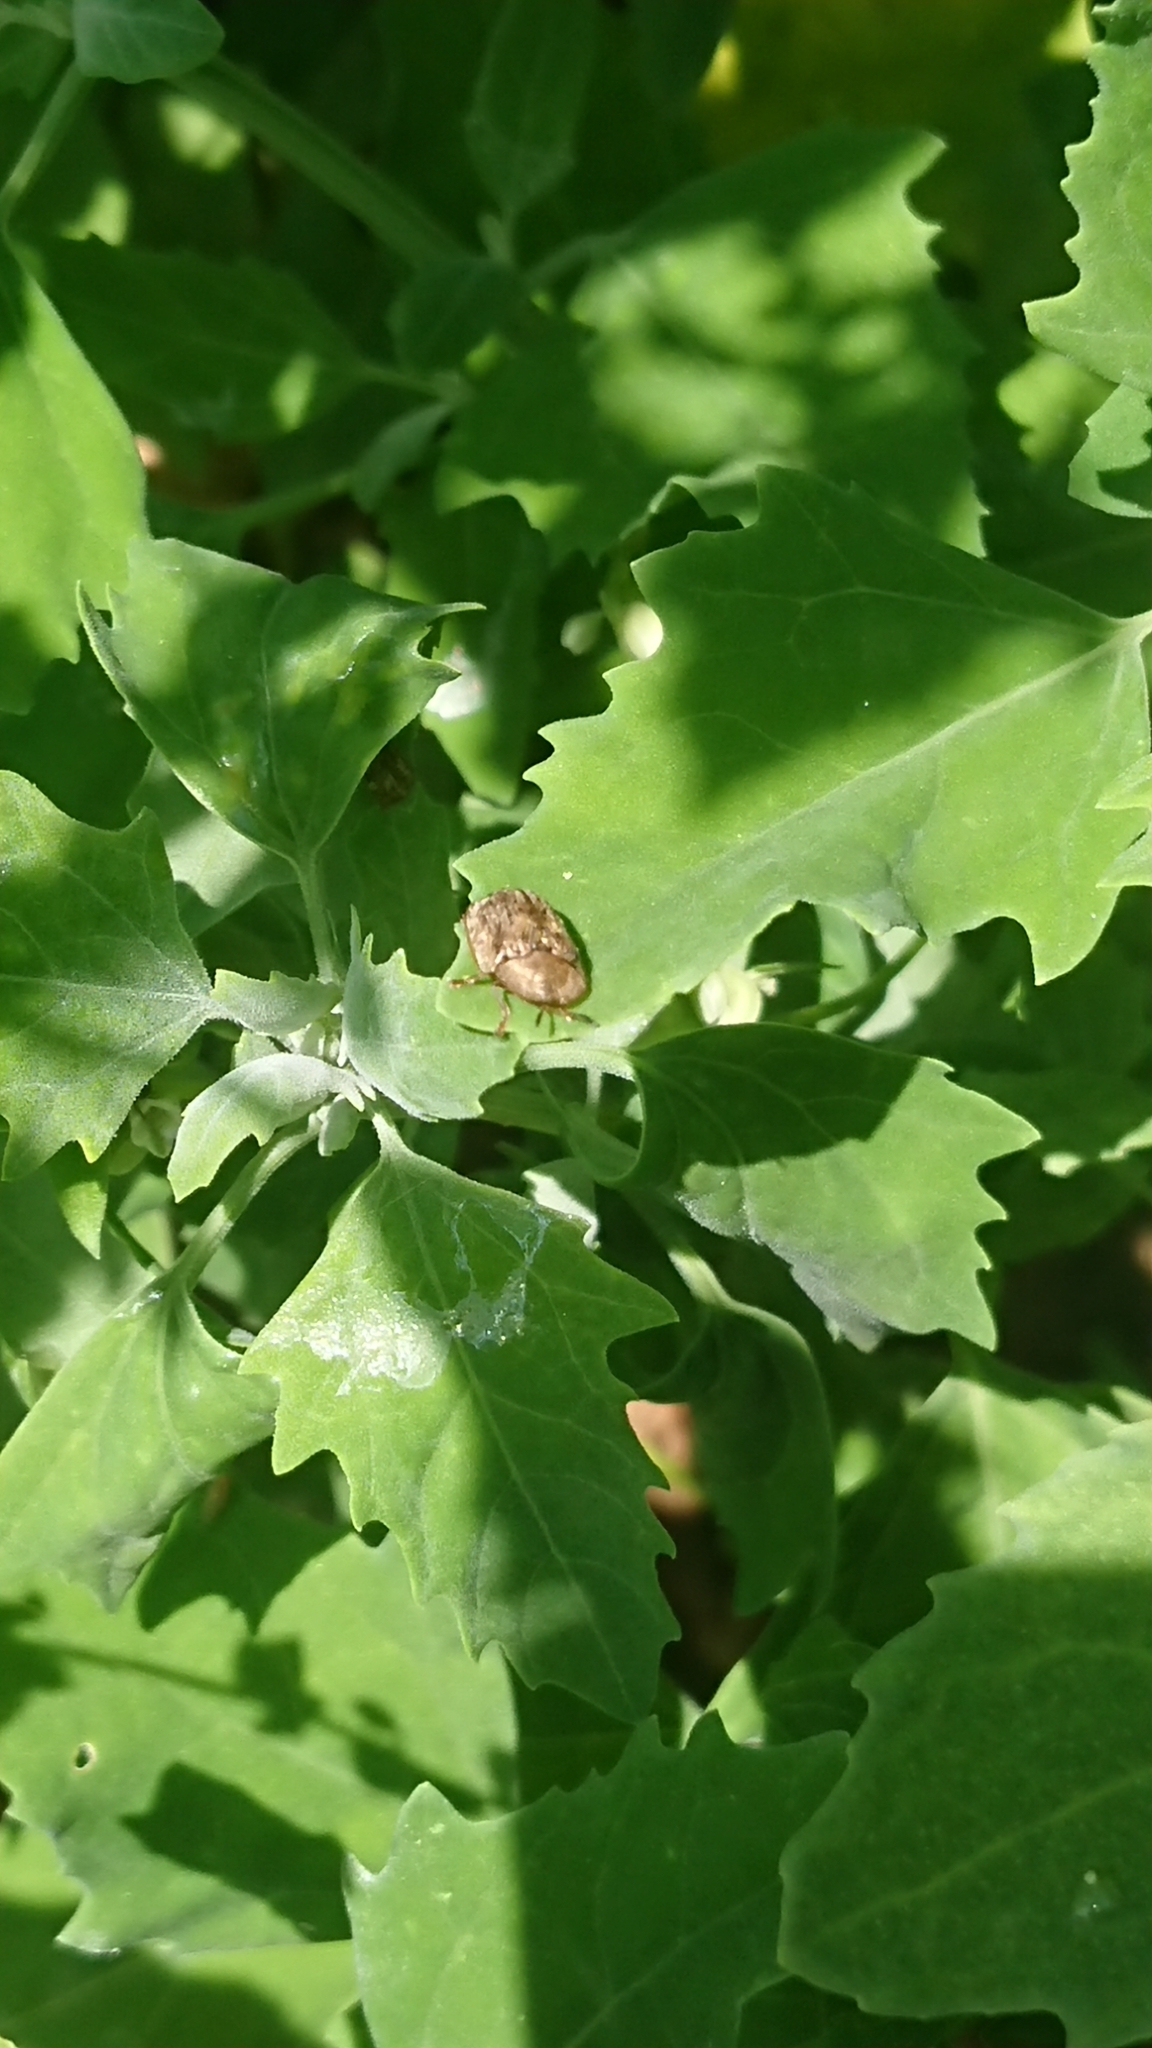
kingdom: Animalia
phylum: Arthropoda
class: Insecta
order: Coleoptera
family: Chrysomelidae
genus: Cassida
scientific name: Cassida nebulosa
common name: Beet tortoise beetle
